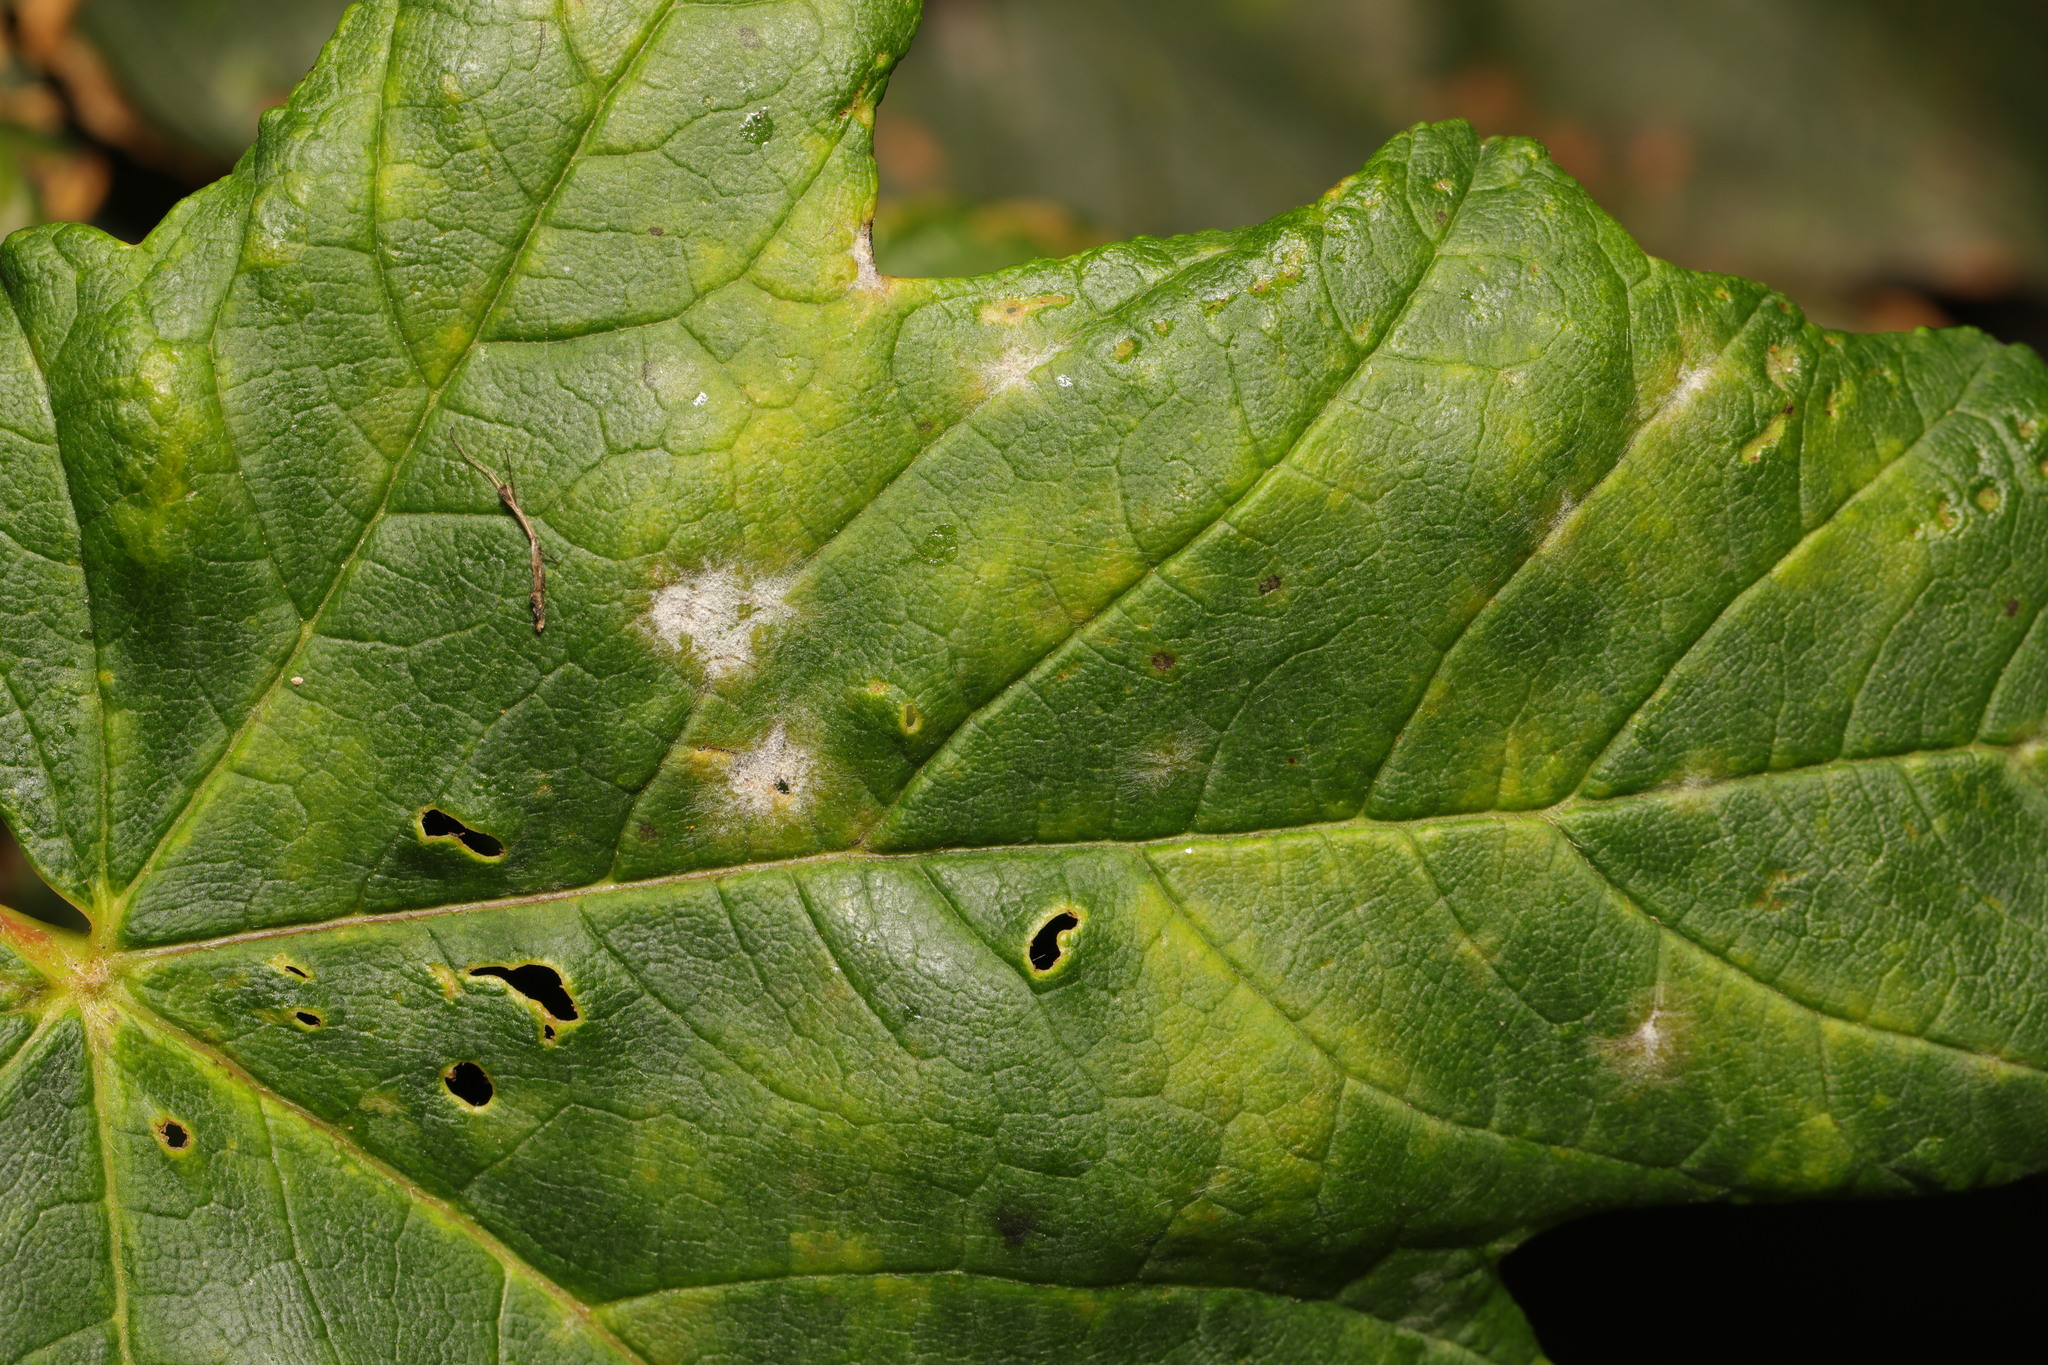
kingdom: Fungi
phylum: Ascomycota
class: Leotiomycetes
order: Helotiales
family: Erysiphaceae
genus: Sawadaea
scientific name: Sawadaea bicornis
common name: Maple mildew
